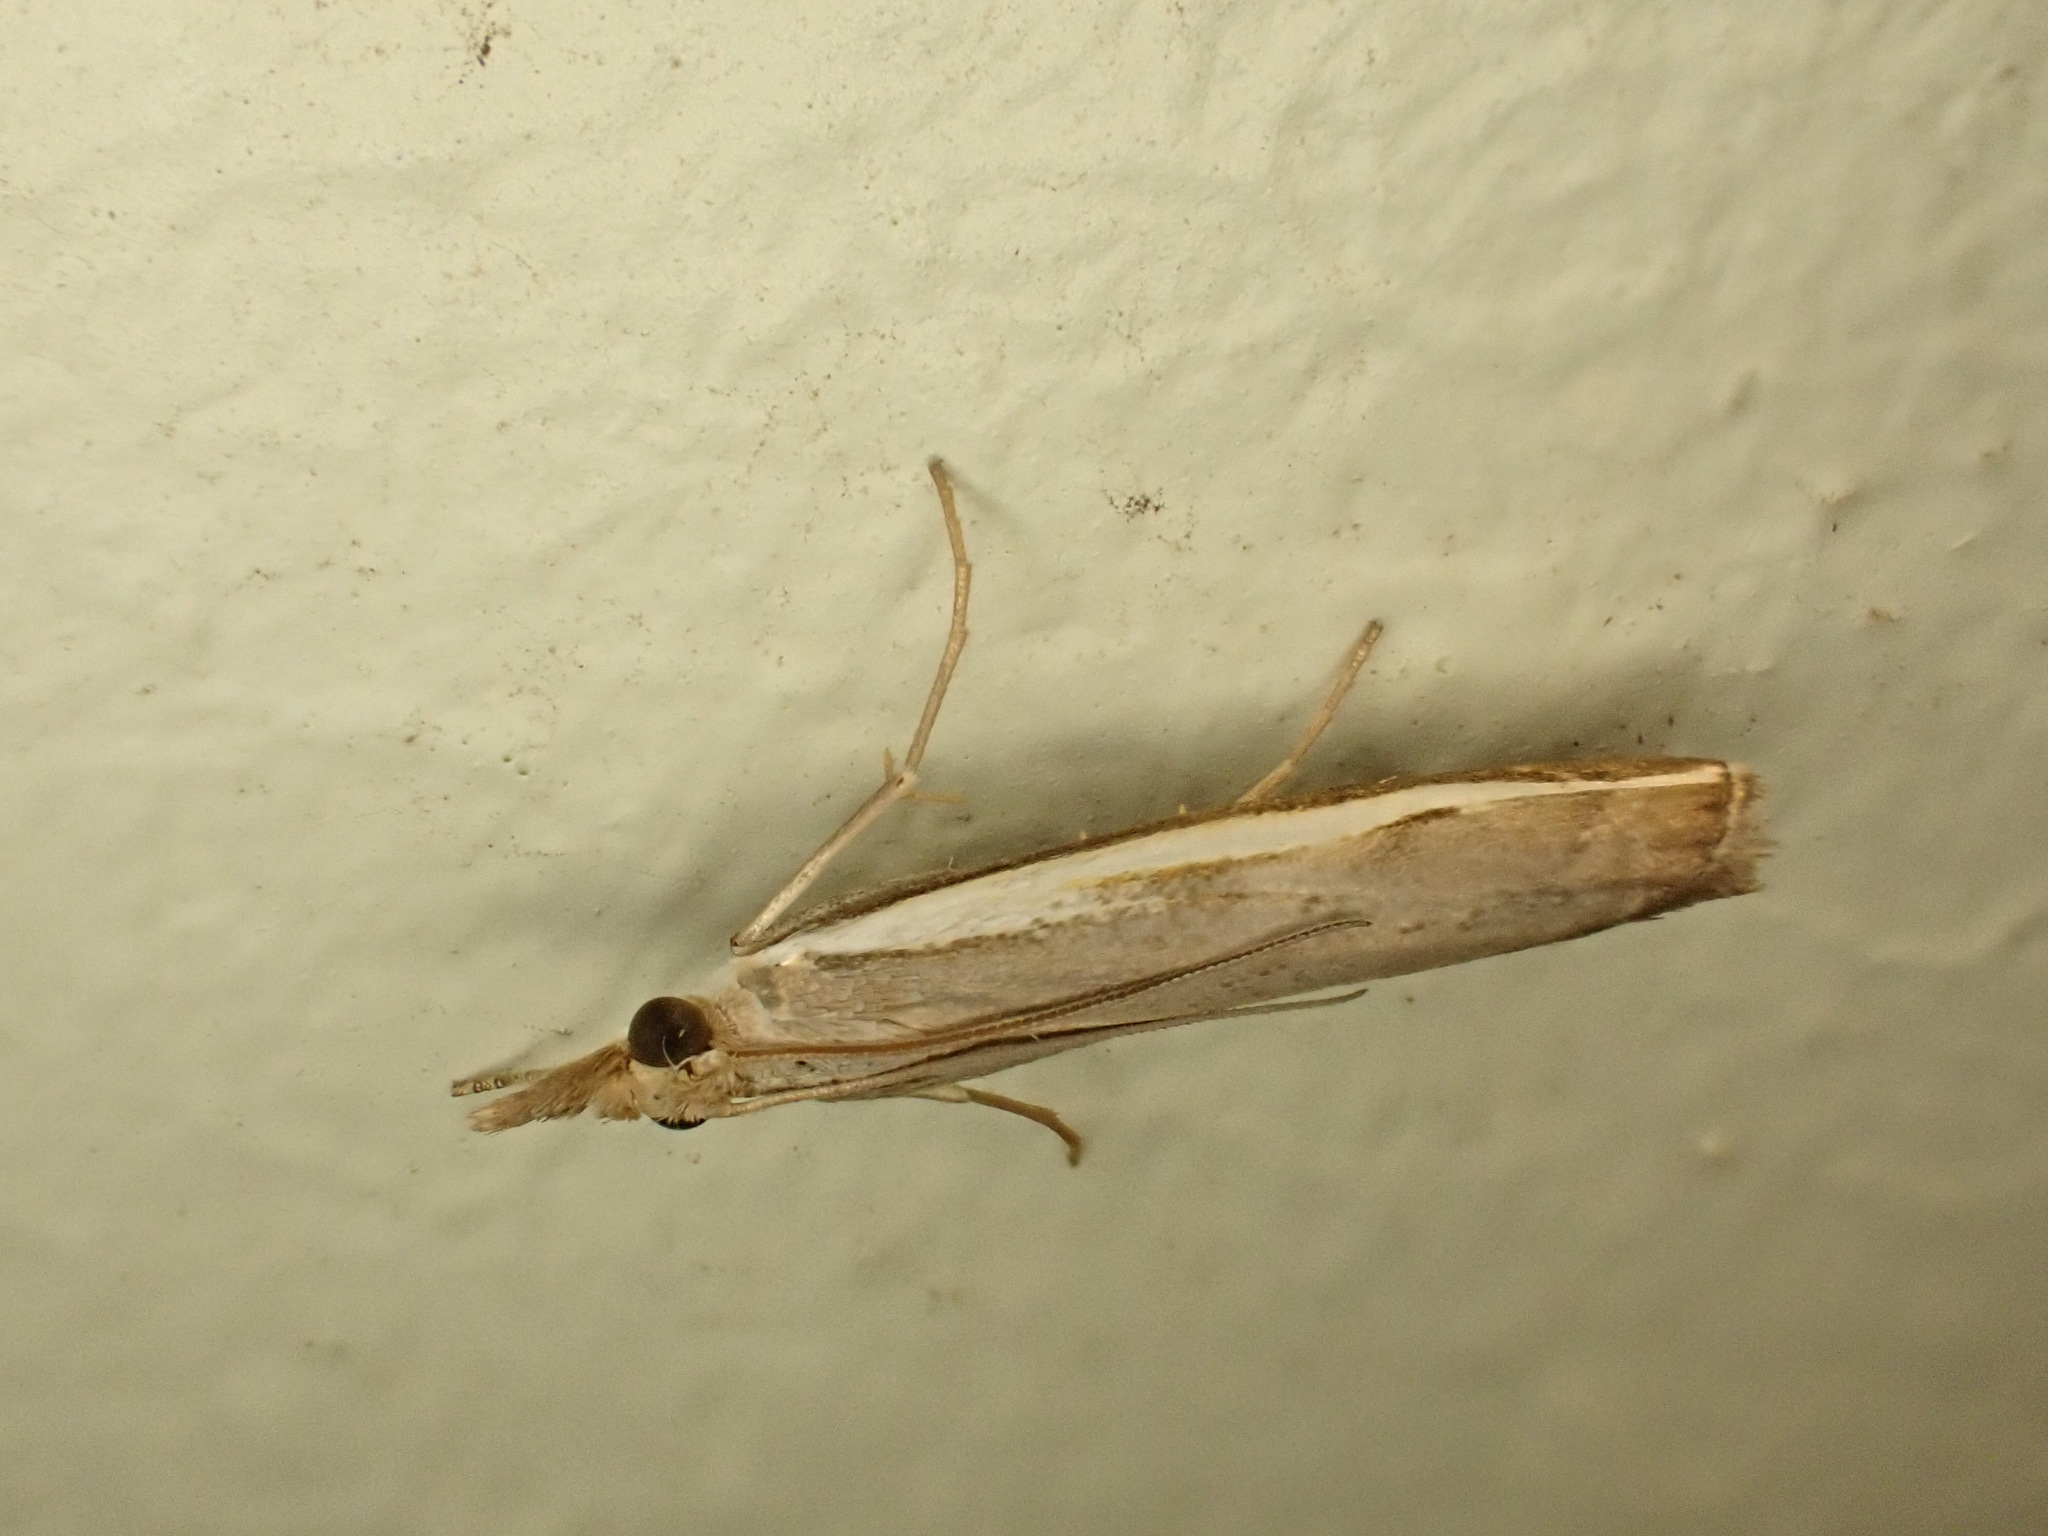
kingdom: Animalia
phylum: Arthropoda
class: Insecta
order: Lepidoptera
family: Crambidae
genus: Orocrambus
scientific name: Orocrambus flexuosellus
